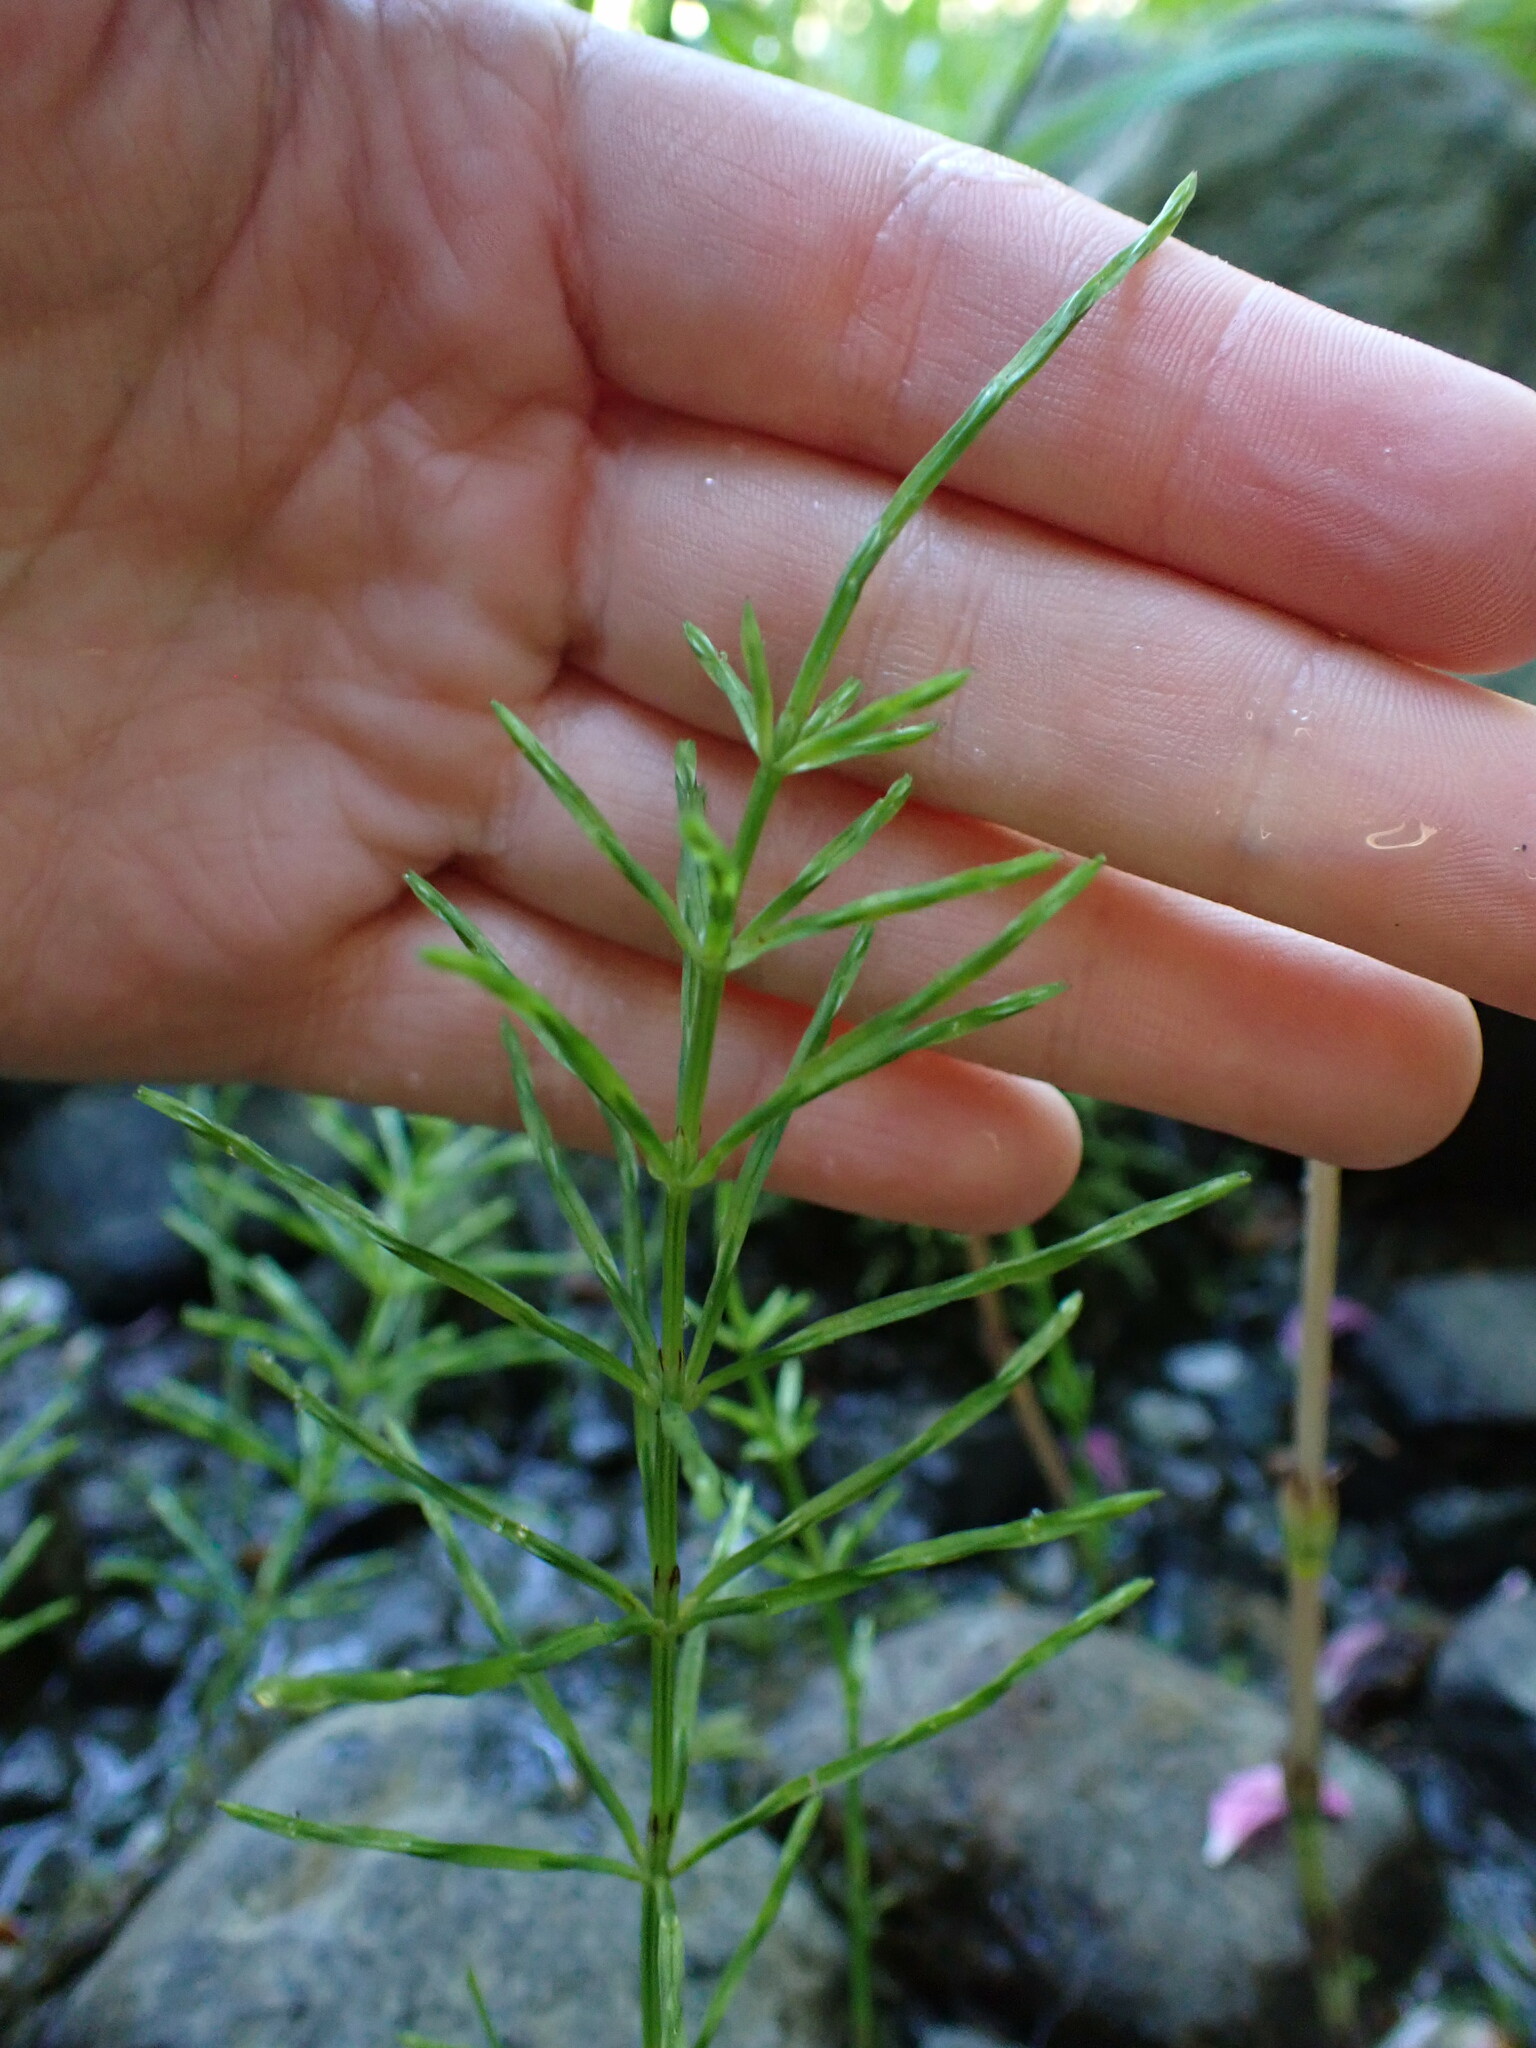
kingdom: Plantae
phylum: Tracheophyta
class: Polypodiopsida
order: Equisetales
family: Equisetaceae
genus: Equisetum
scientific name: Equisetum arvense
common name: Field horsetail
